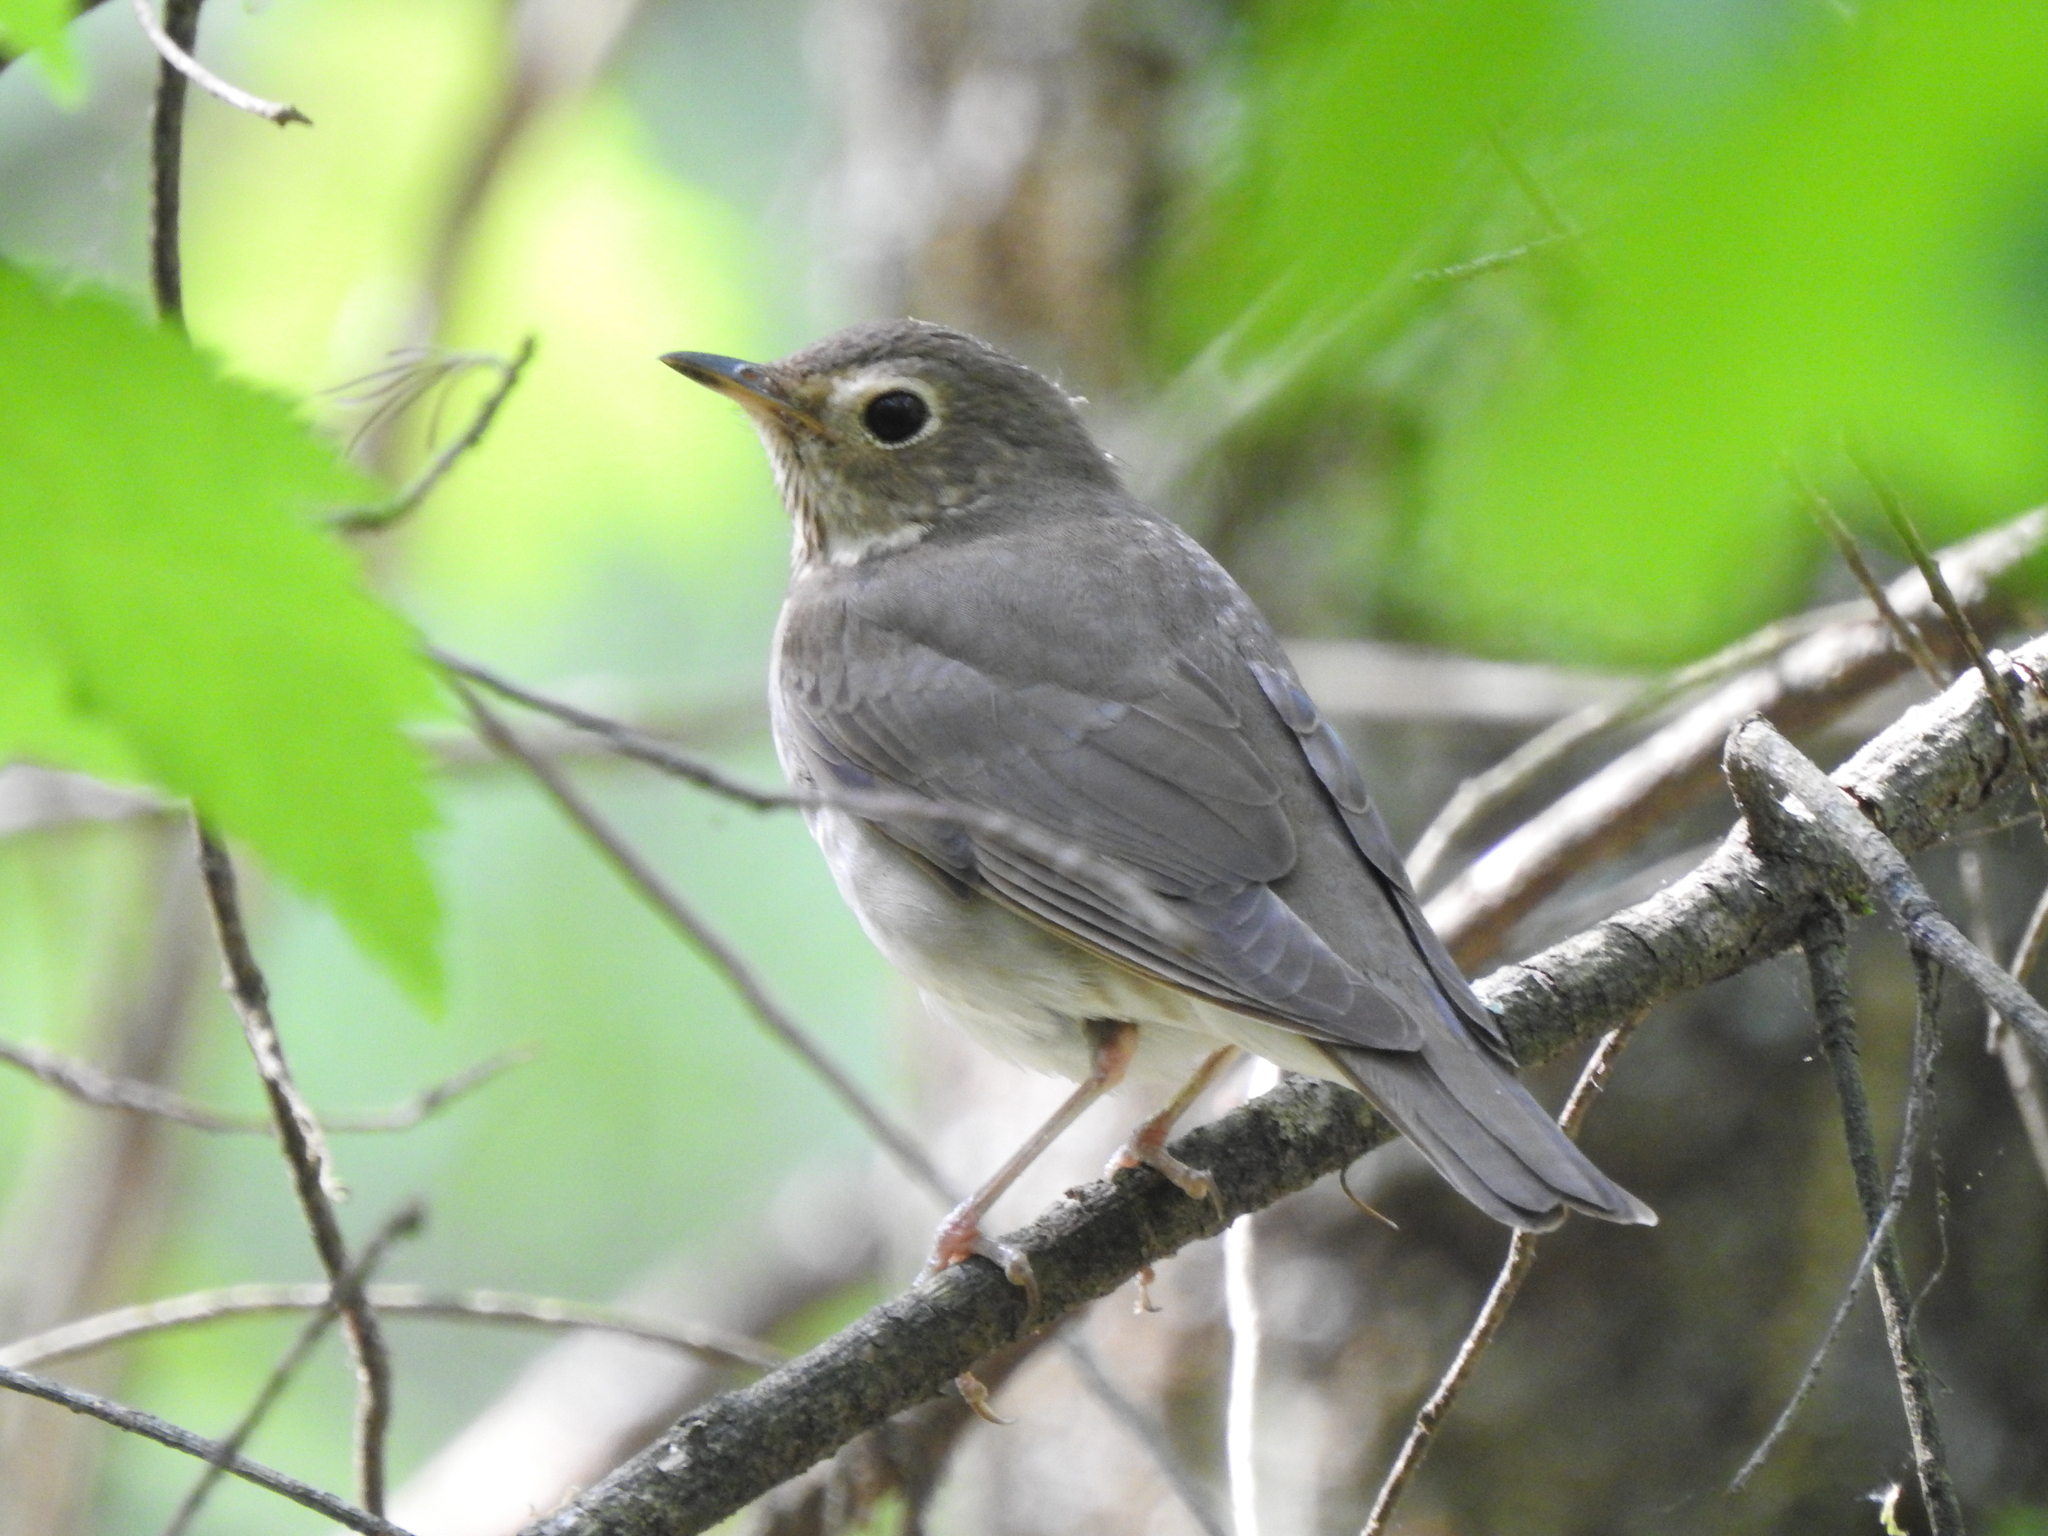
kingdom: Animalia
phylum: Chordata
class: Aves
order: Passeriformes
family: Turdidae
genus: Catharus
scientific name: Catharus ustulatus
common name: Swainson's thrush
